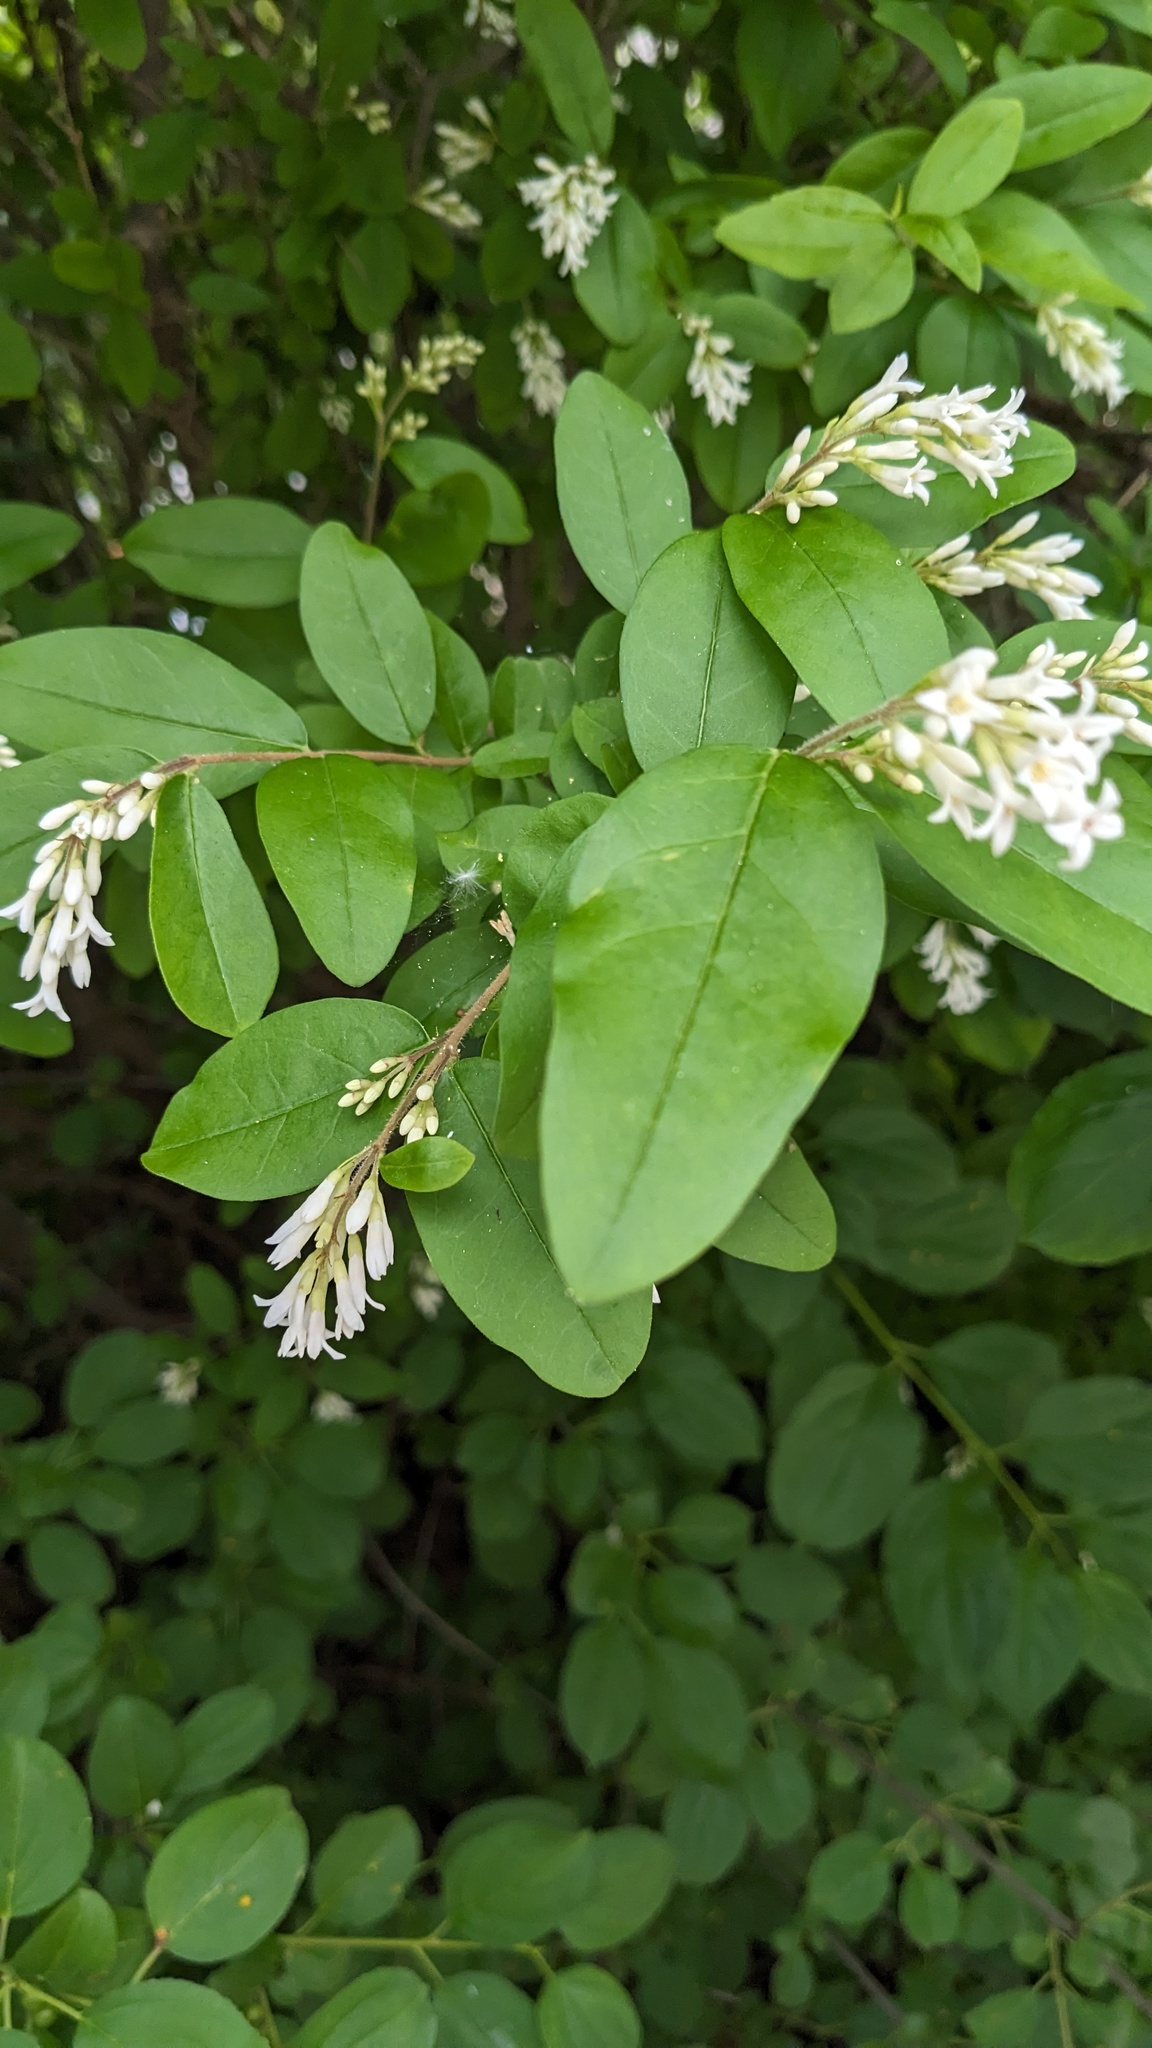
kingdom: Plantae
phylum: Tracheophyta
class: Magnoliopsida
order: Lamiales
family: Oleaceae
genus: Ligustrum
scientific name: Ligustrum obtusifolium
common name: Border privet
